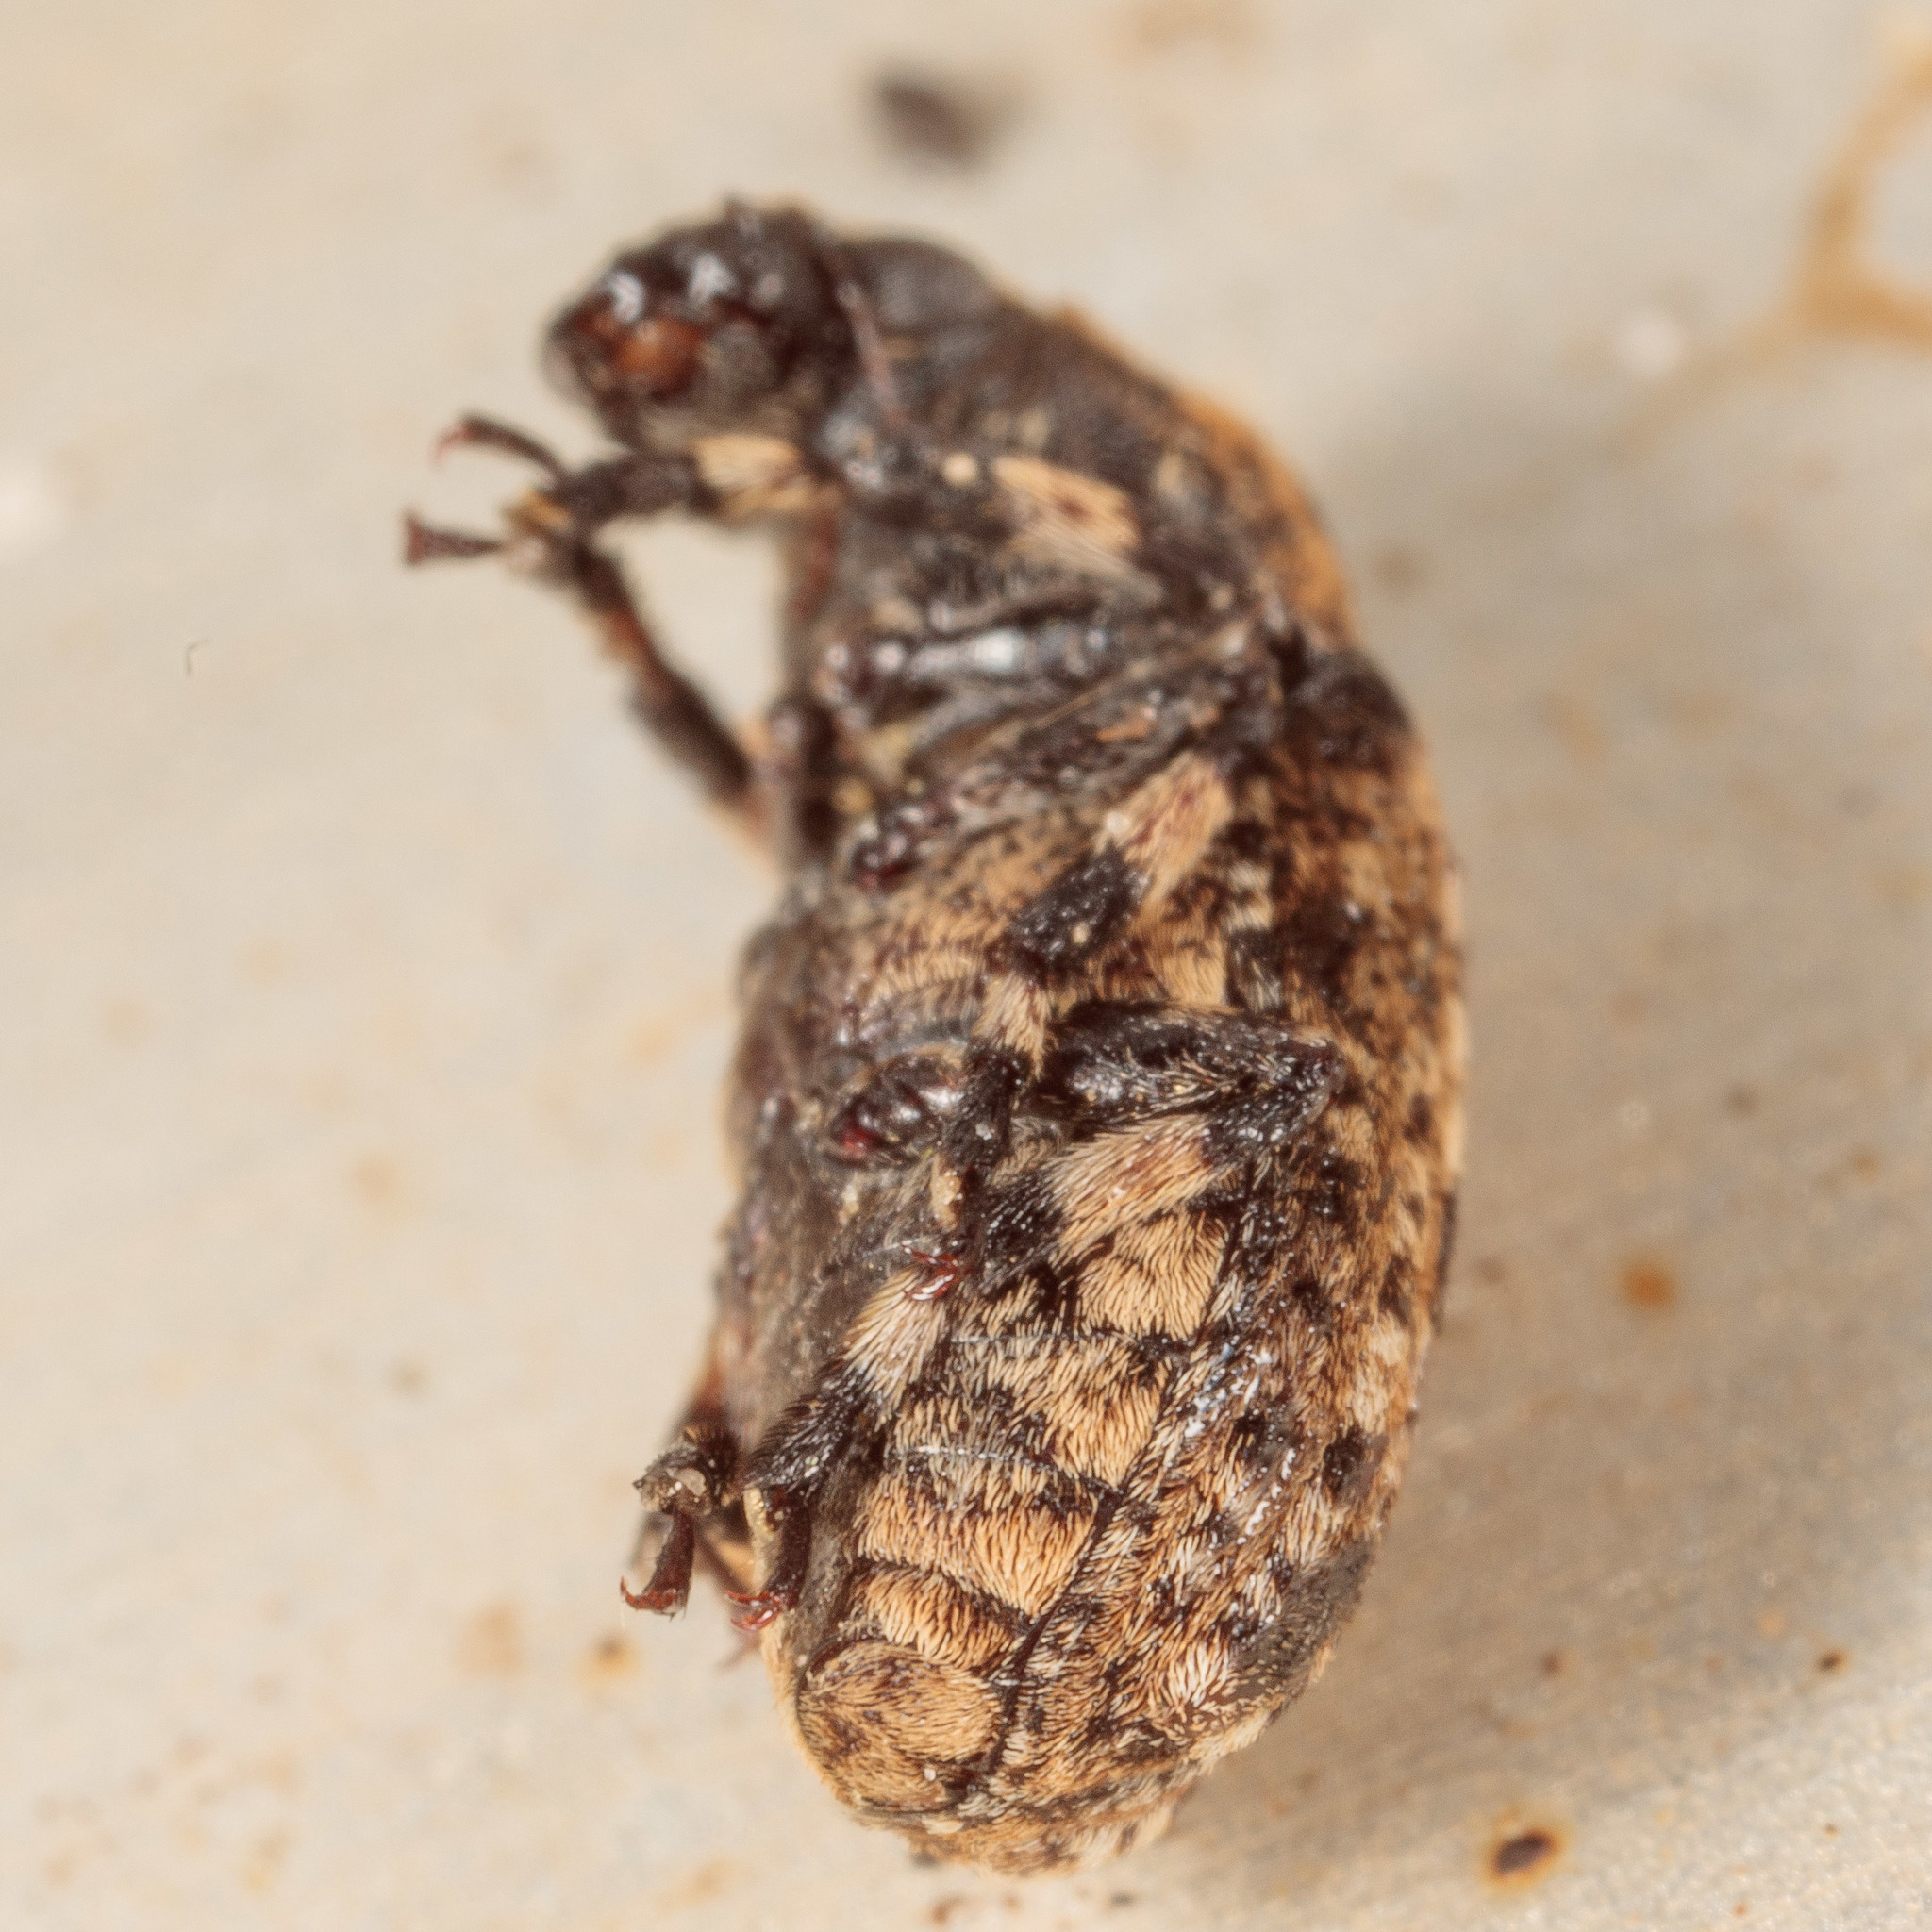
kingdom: Animalia
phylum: Arthropoda
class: Insecta
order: Coleoptera
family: Anthribidae
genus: Euparius
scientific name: Euparius marmoreus
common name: Marbled fungus weevil
